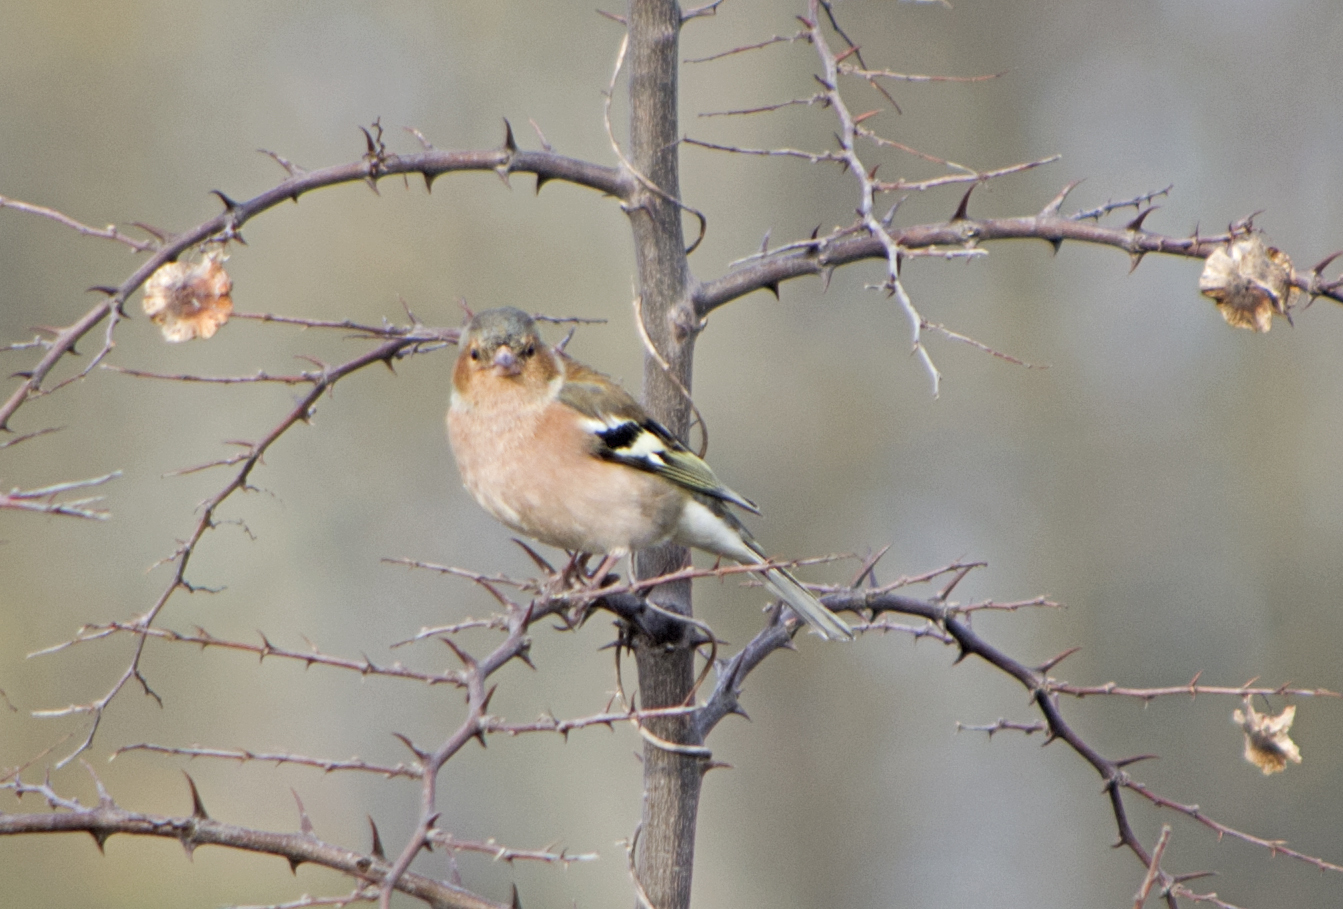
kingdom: Animalia
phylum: Chordata
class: Aves
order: Passeriformes
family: Fringillidae
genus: Fringilla
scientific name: Fringilla coelebs
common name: Common chaffinch
